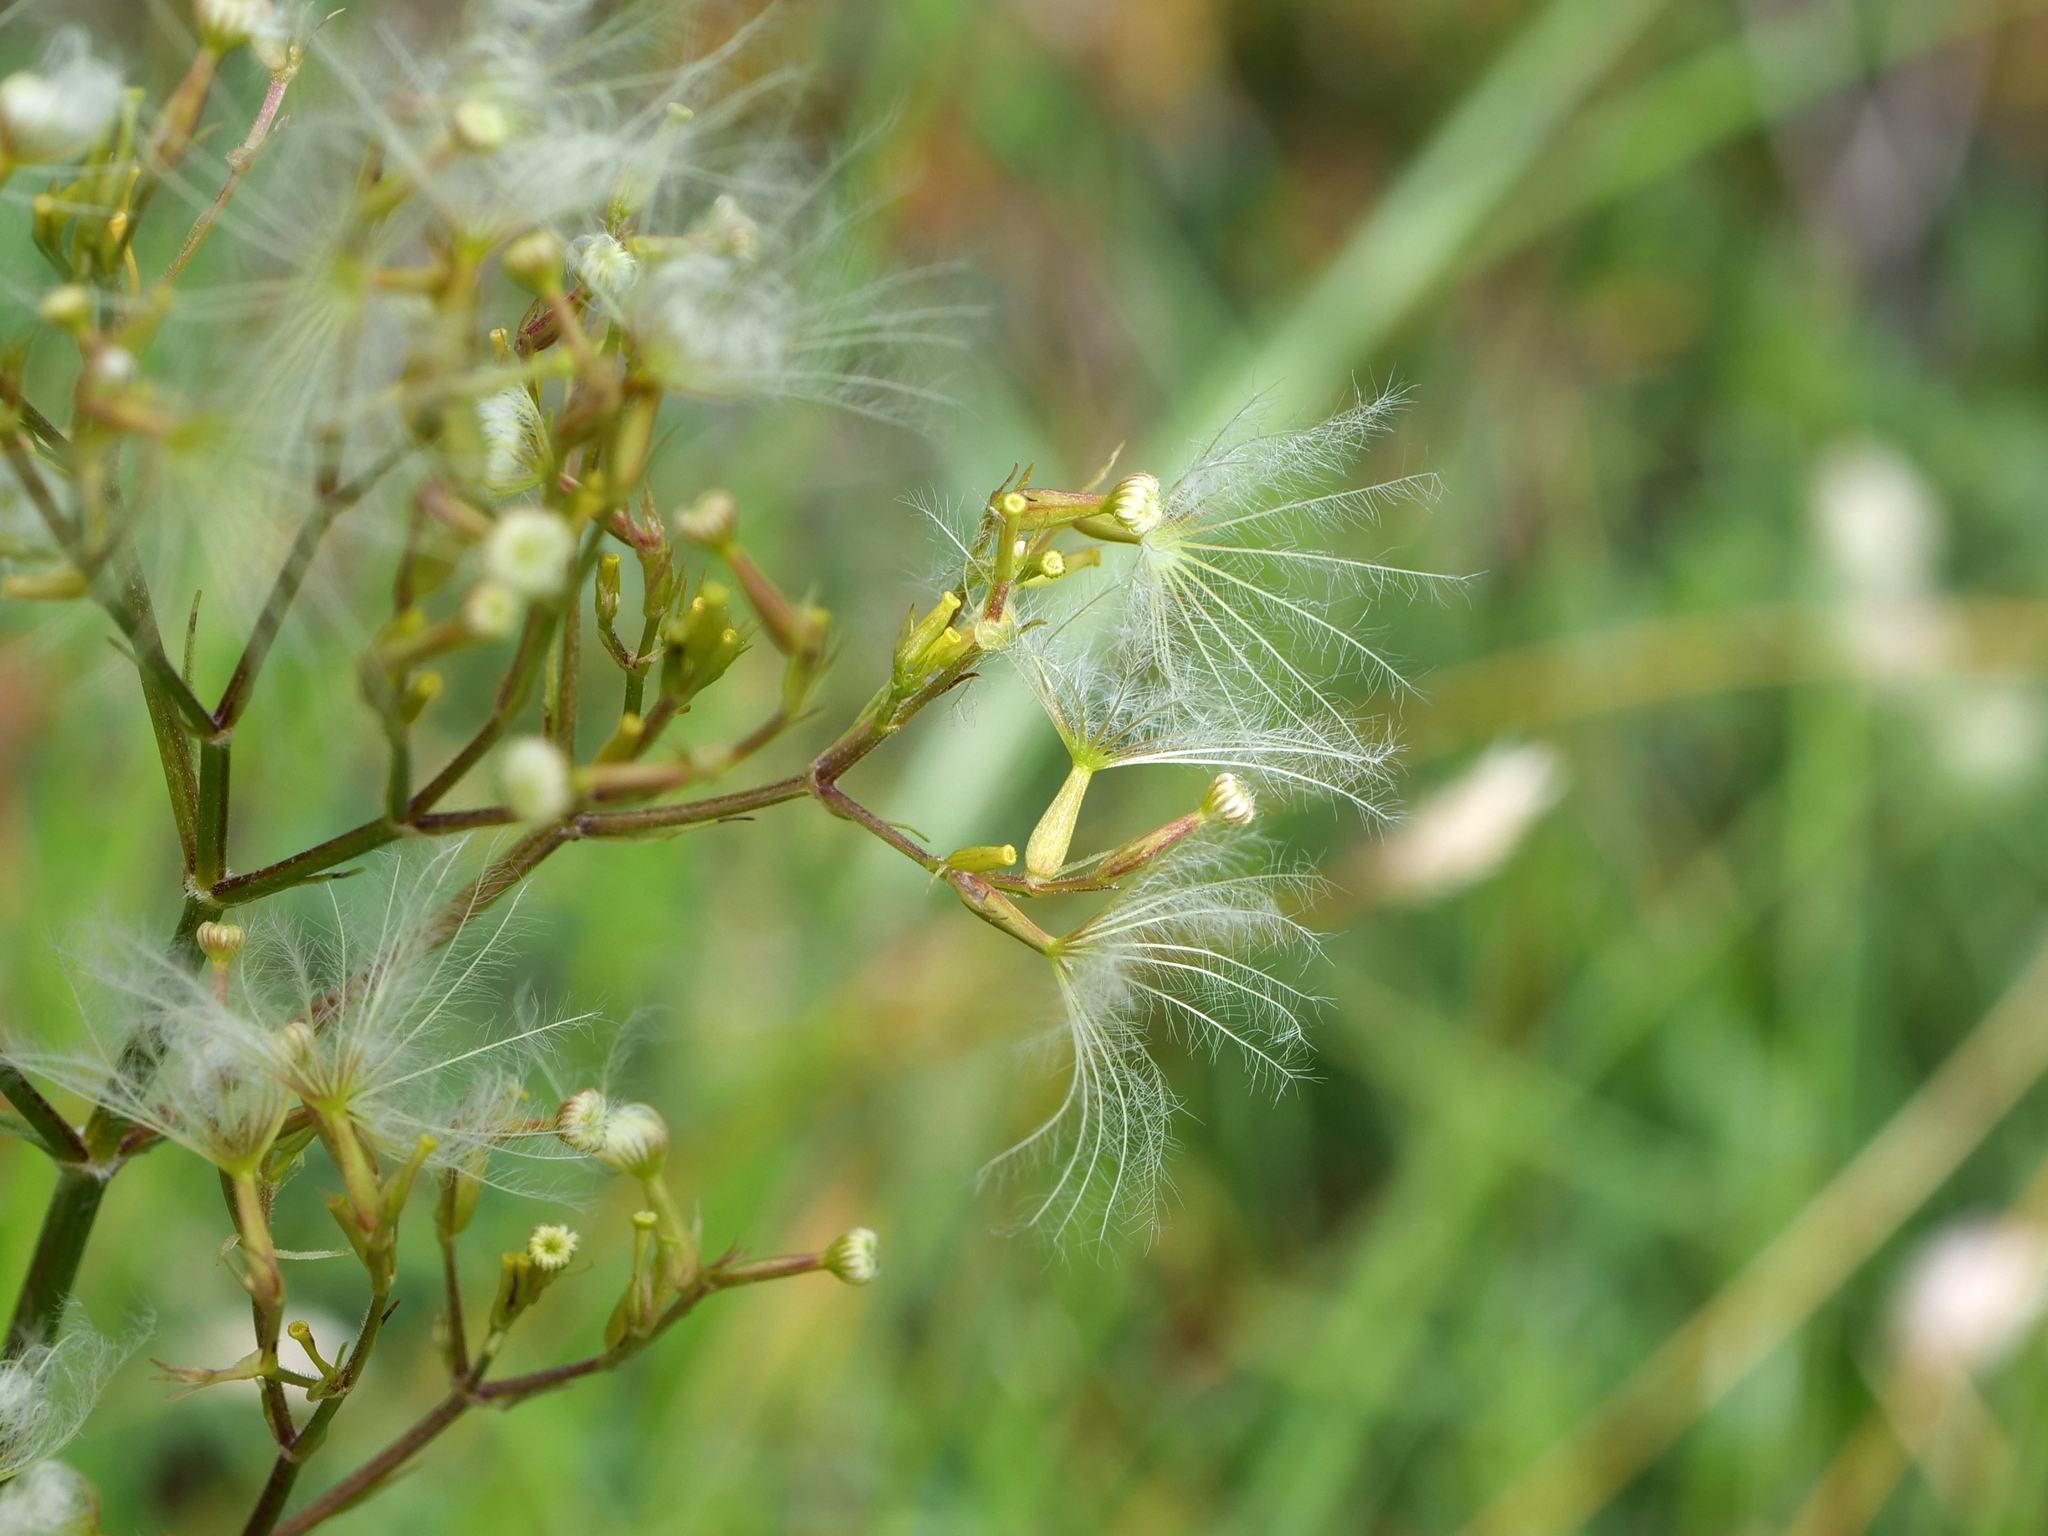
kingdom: Plantae
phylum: Tracheophyta
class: Magnoliopsida
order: Dipsacales
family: Caprifoliaceae
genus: Valeriana
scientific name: Valeriana montana
